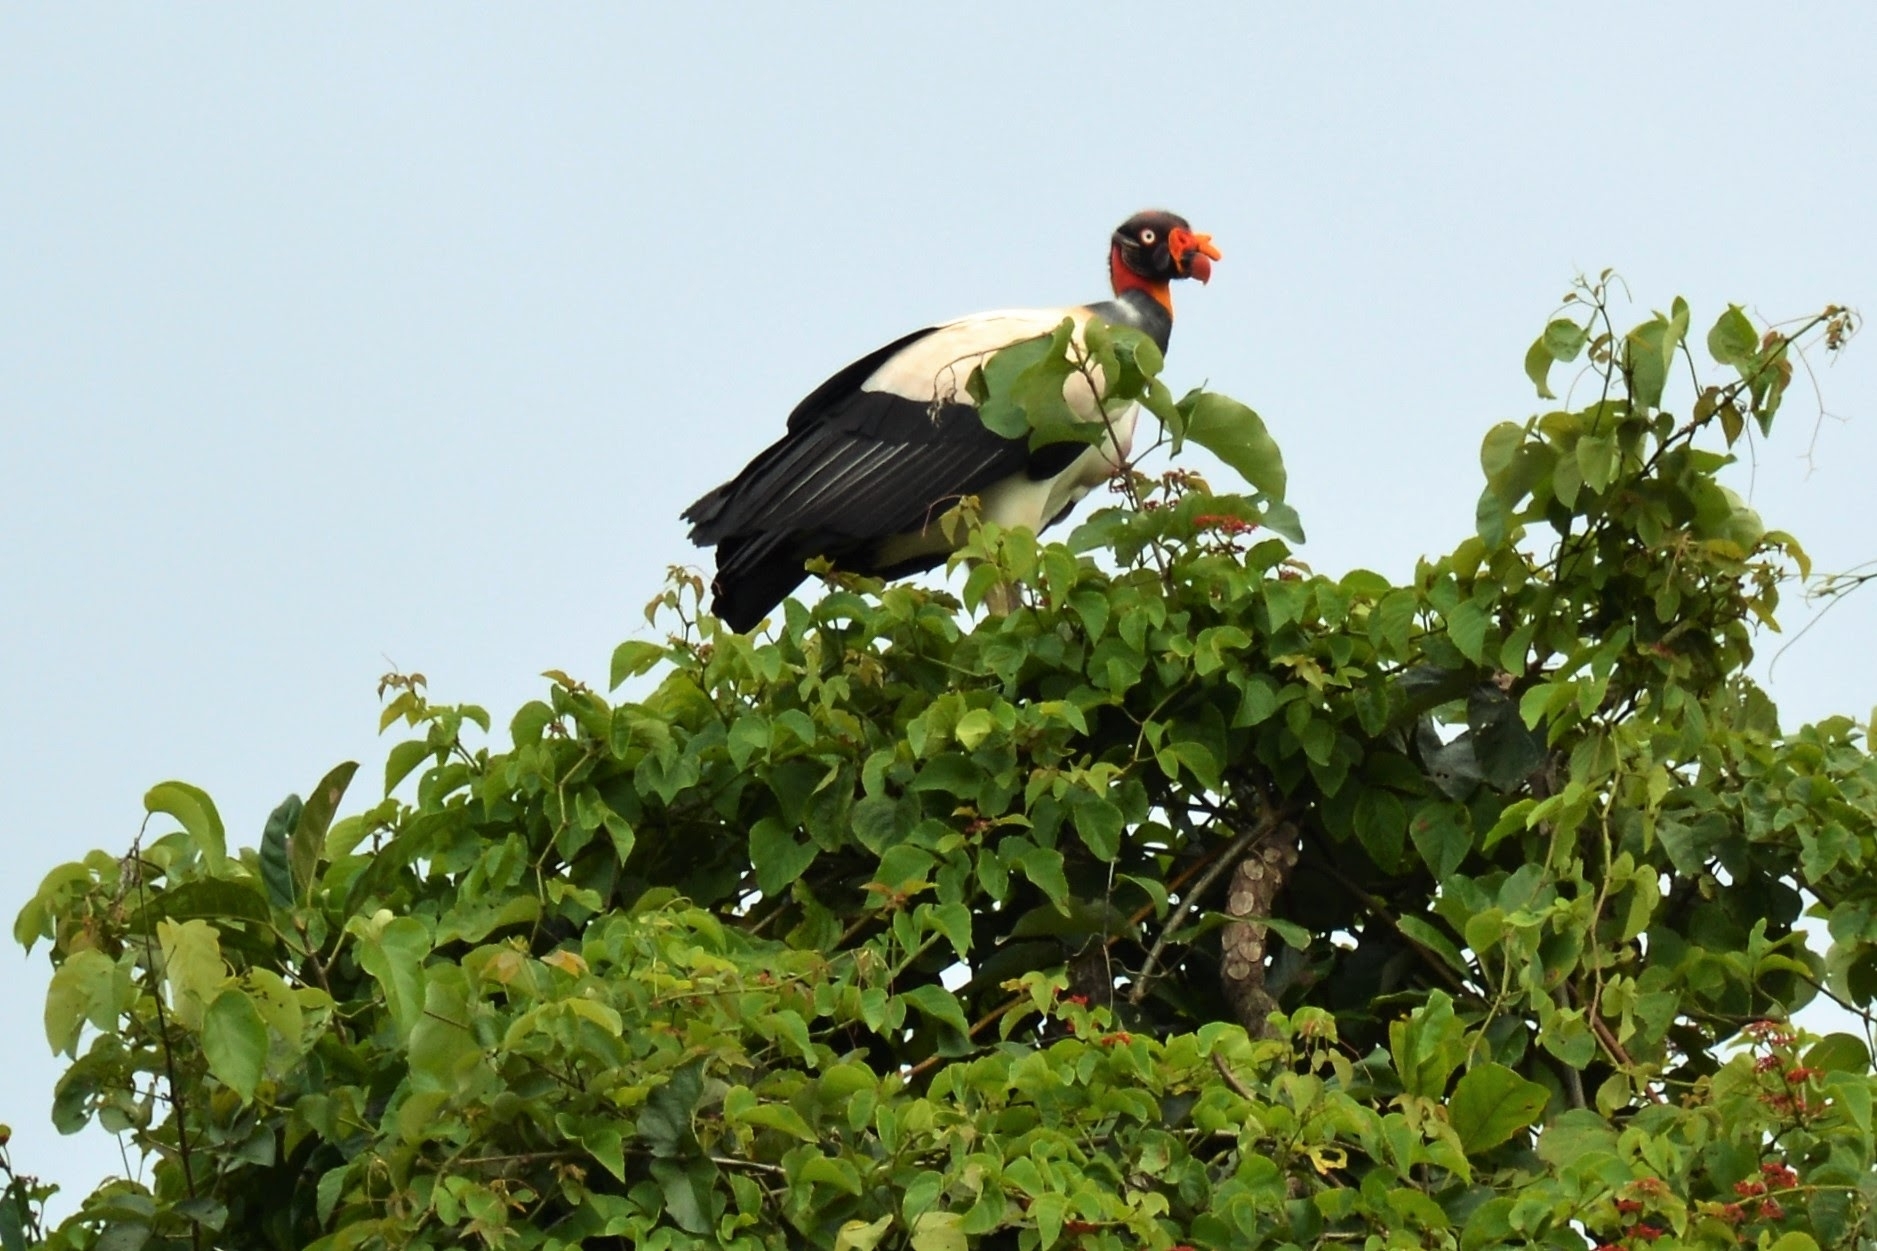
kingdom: Animalia
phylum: Chordata
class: Aves
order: Accipitriformes
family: Cathartidae
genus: Sarcoramphus
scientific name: Sarcoramphus papa
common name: King vulture
